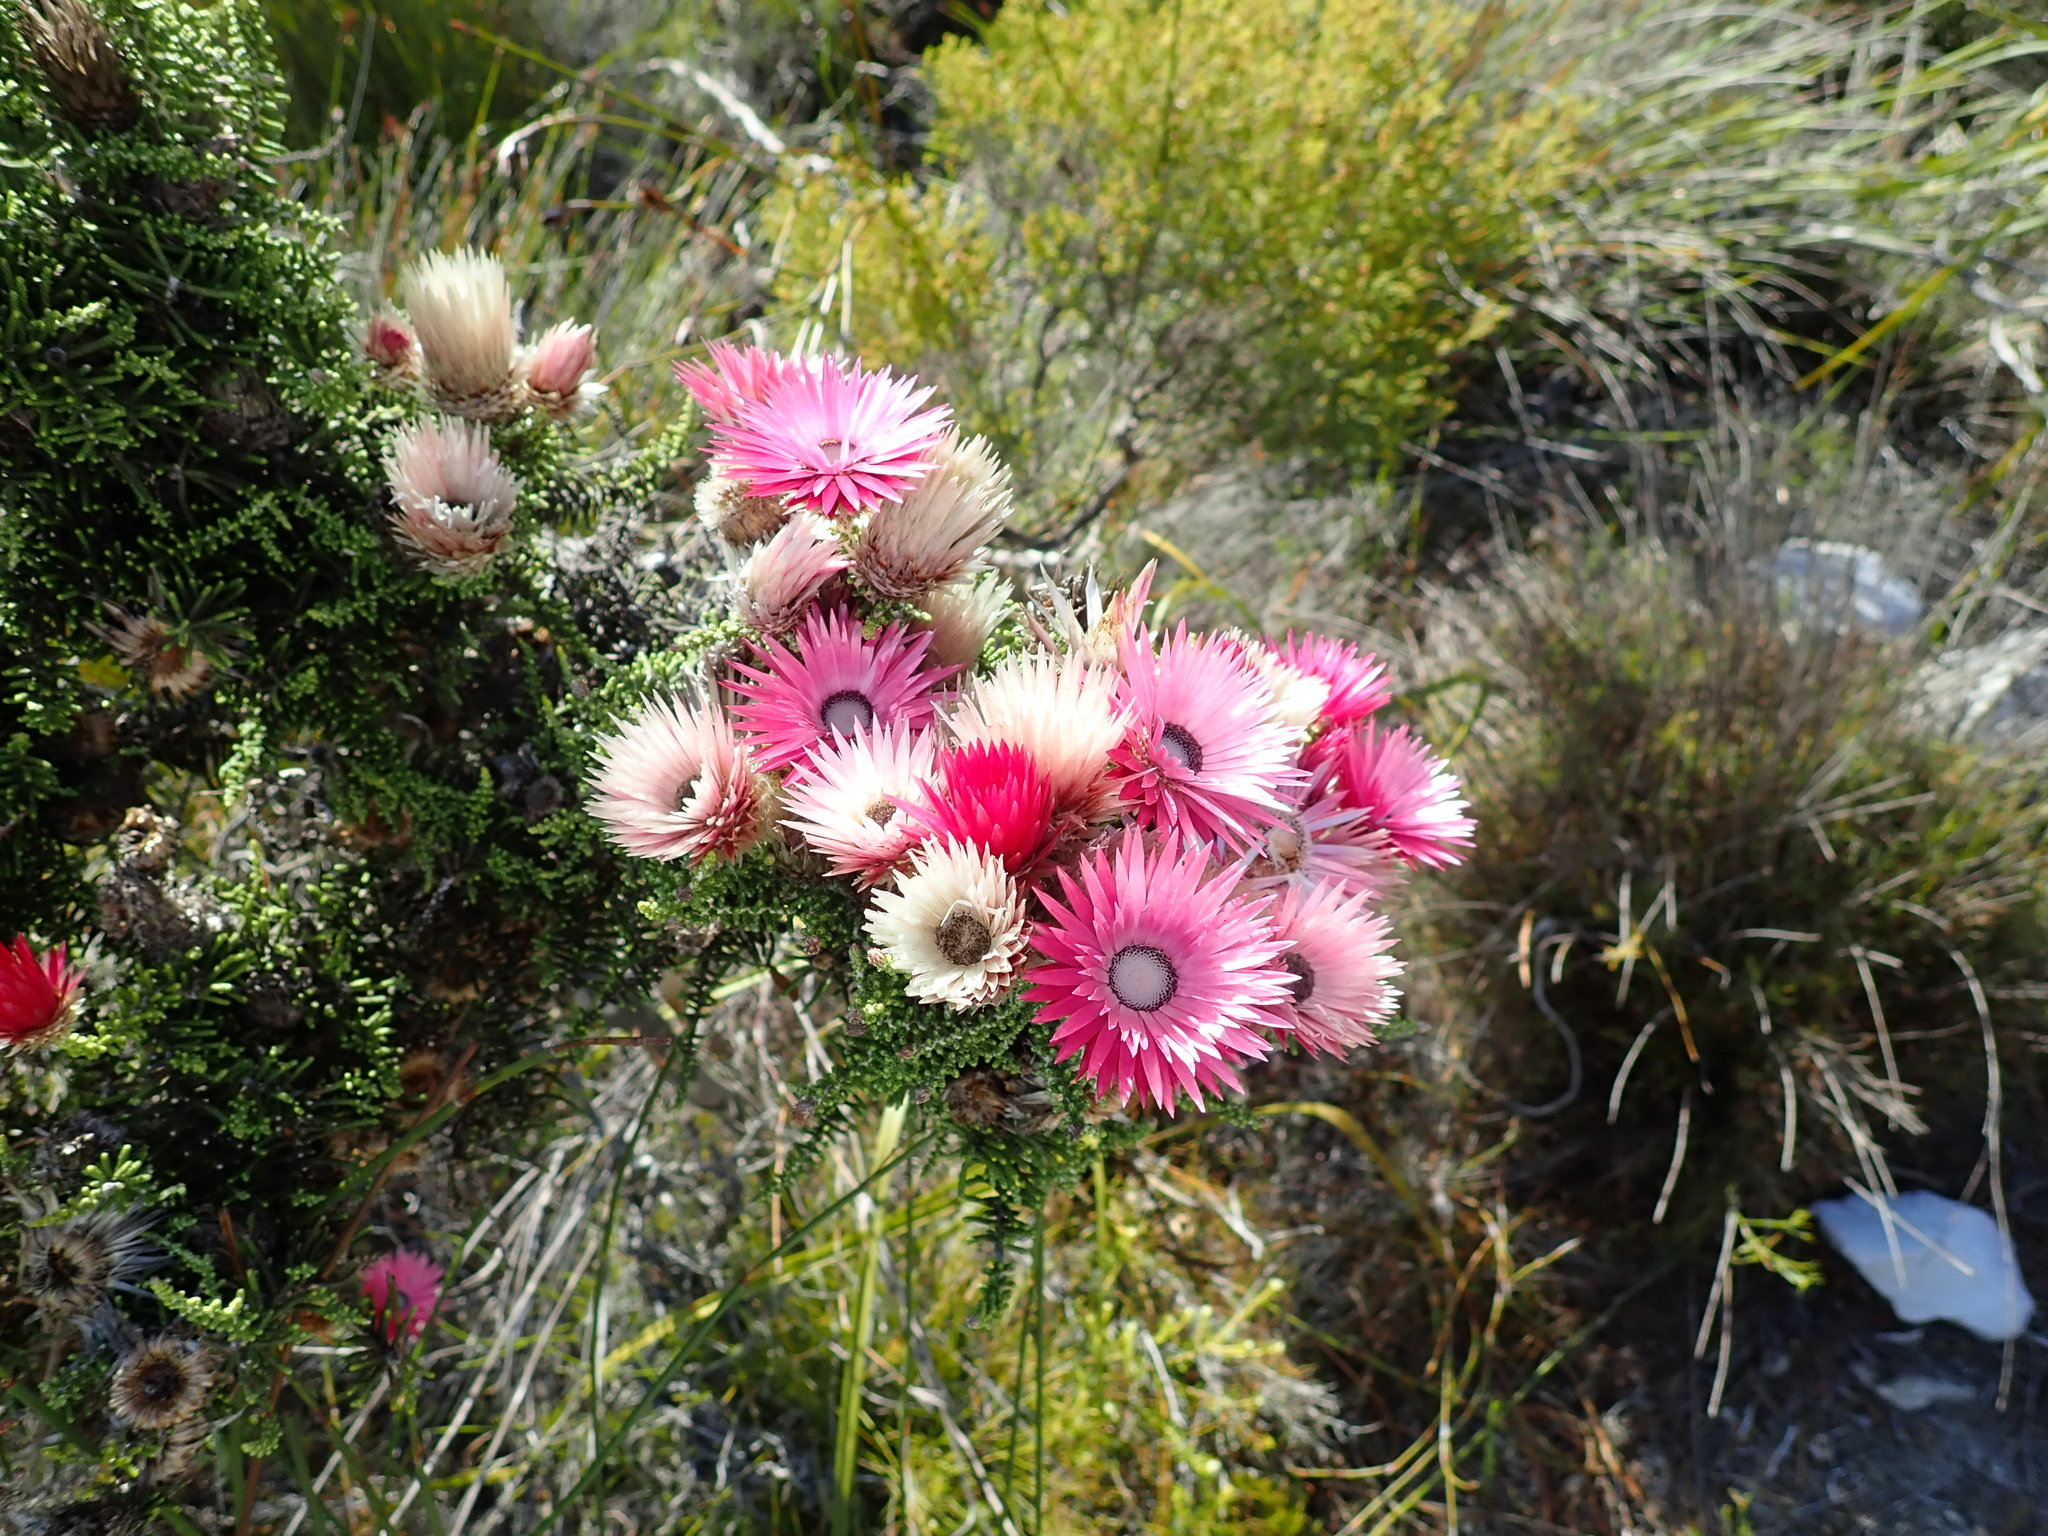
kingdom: Plantae
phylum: Tracheophyta
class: Magnoliopsida
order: Asterales
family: Asteraceae
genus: Phaenocoma
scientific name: Phaenocoma prolifera
